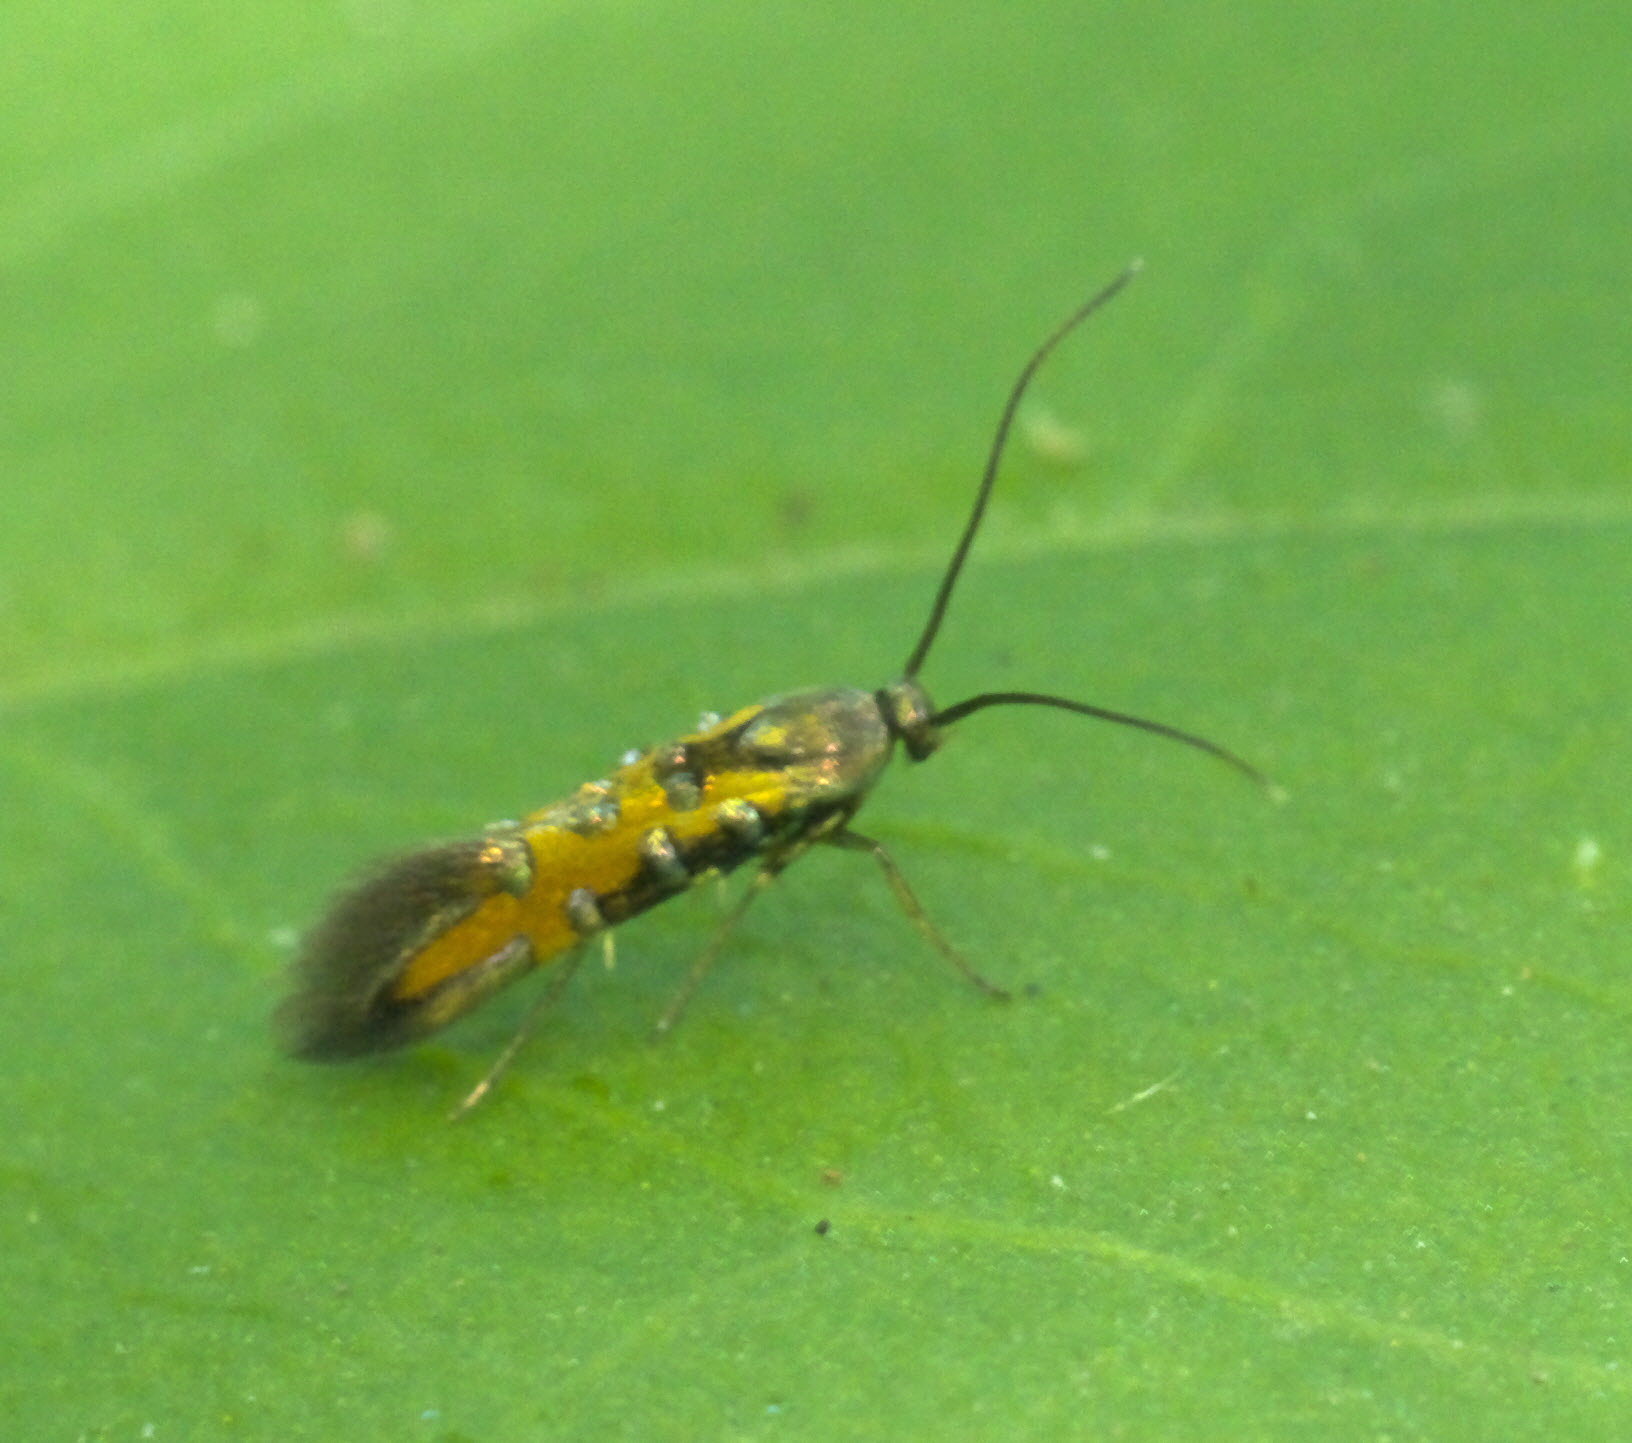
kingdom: Animalia
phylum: Arthropoda
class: Insecta
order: Lepidoptera
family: Heliodinidae
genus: Neoheliodines
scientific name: Neoheliodines
